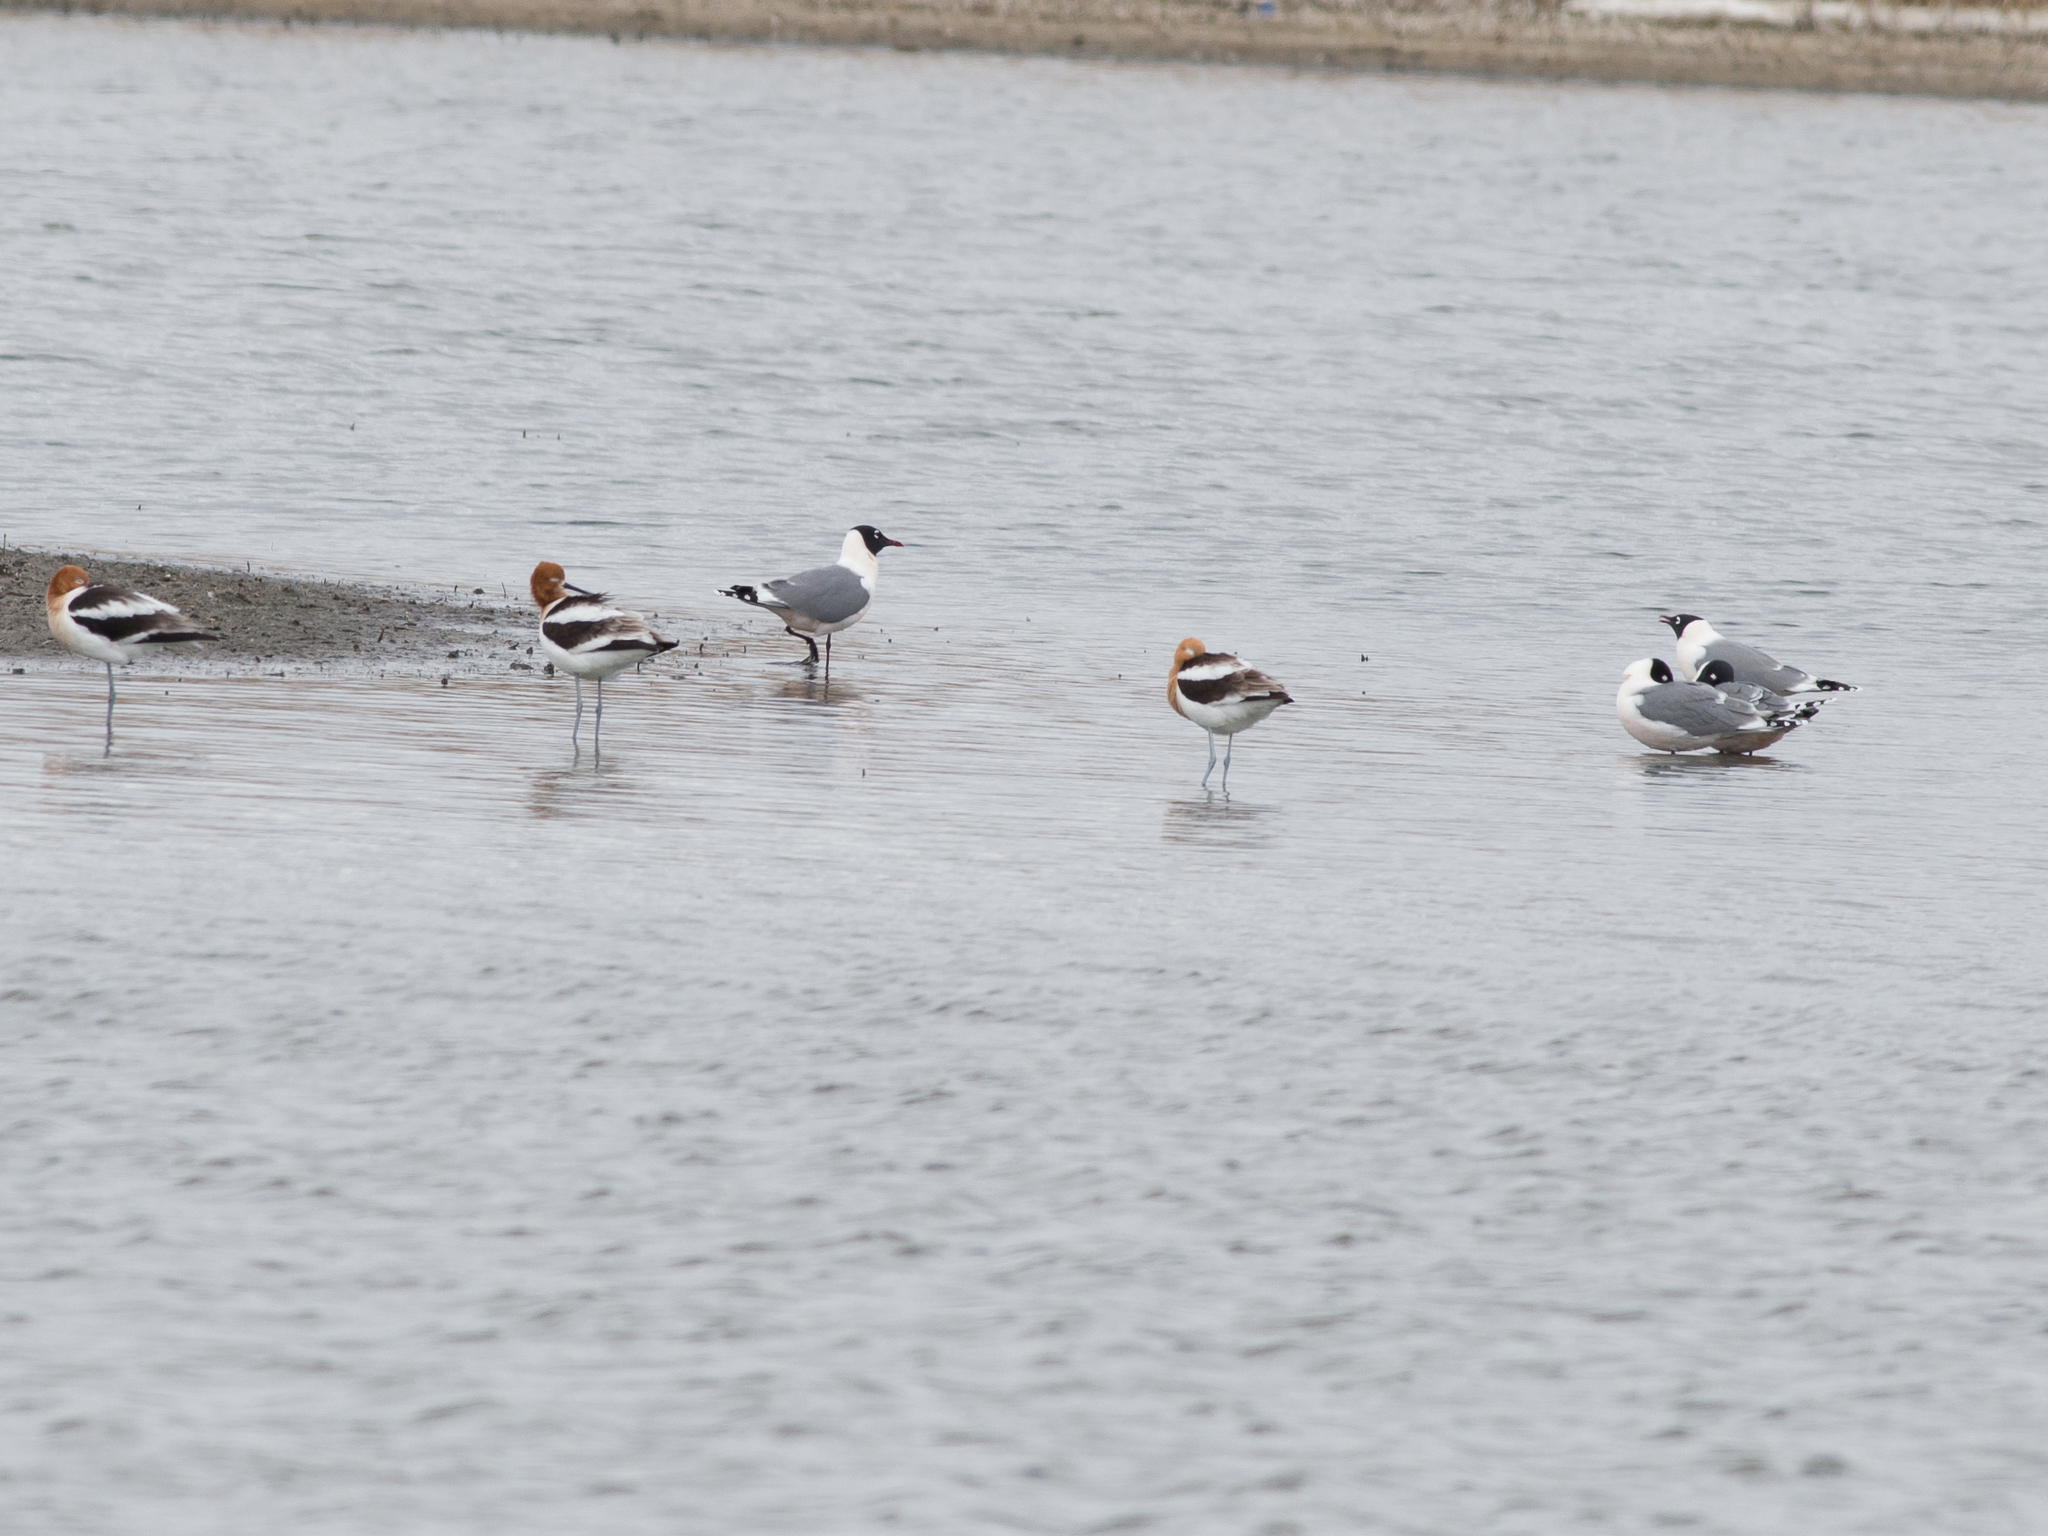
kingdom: Animalia
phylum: Chordata
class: Aves
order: Charadriiformes
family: Laridae
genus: Leucophaeus
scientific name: Leucophaeus pipixcan
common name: Franklin's gull
